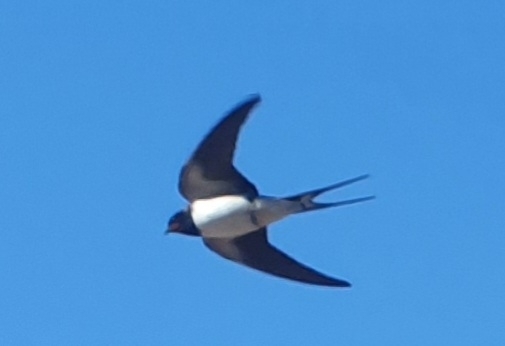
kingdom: Animalia
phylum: Chordata
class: Aves
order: Passeriformes
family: Hirundinidae
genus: Hirundo
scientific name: Hirundo rustica
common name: Barn swallow
